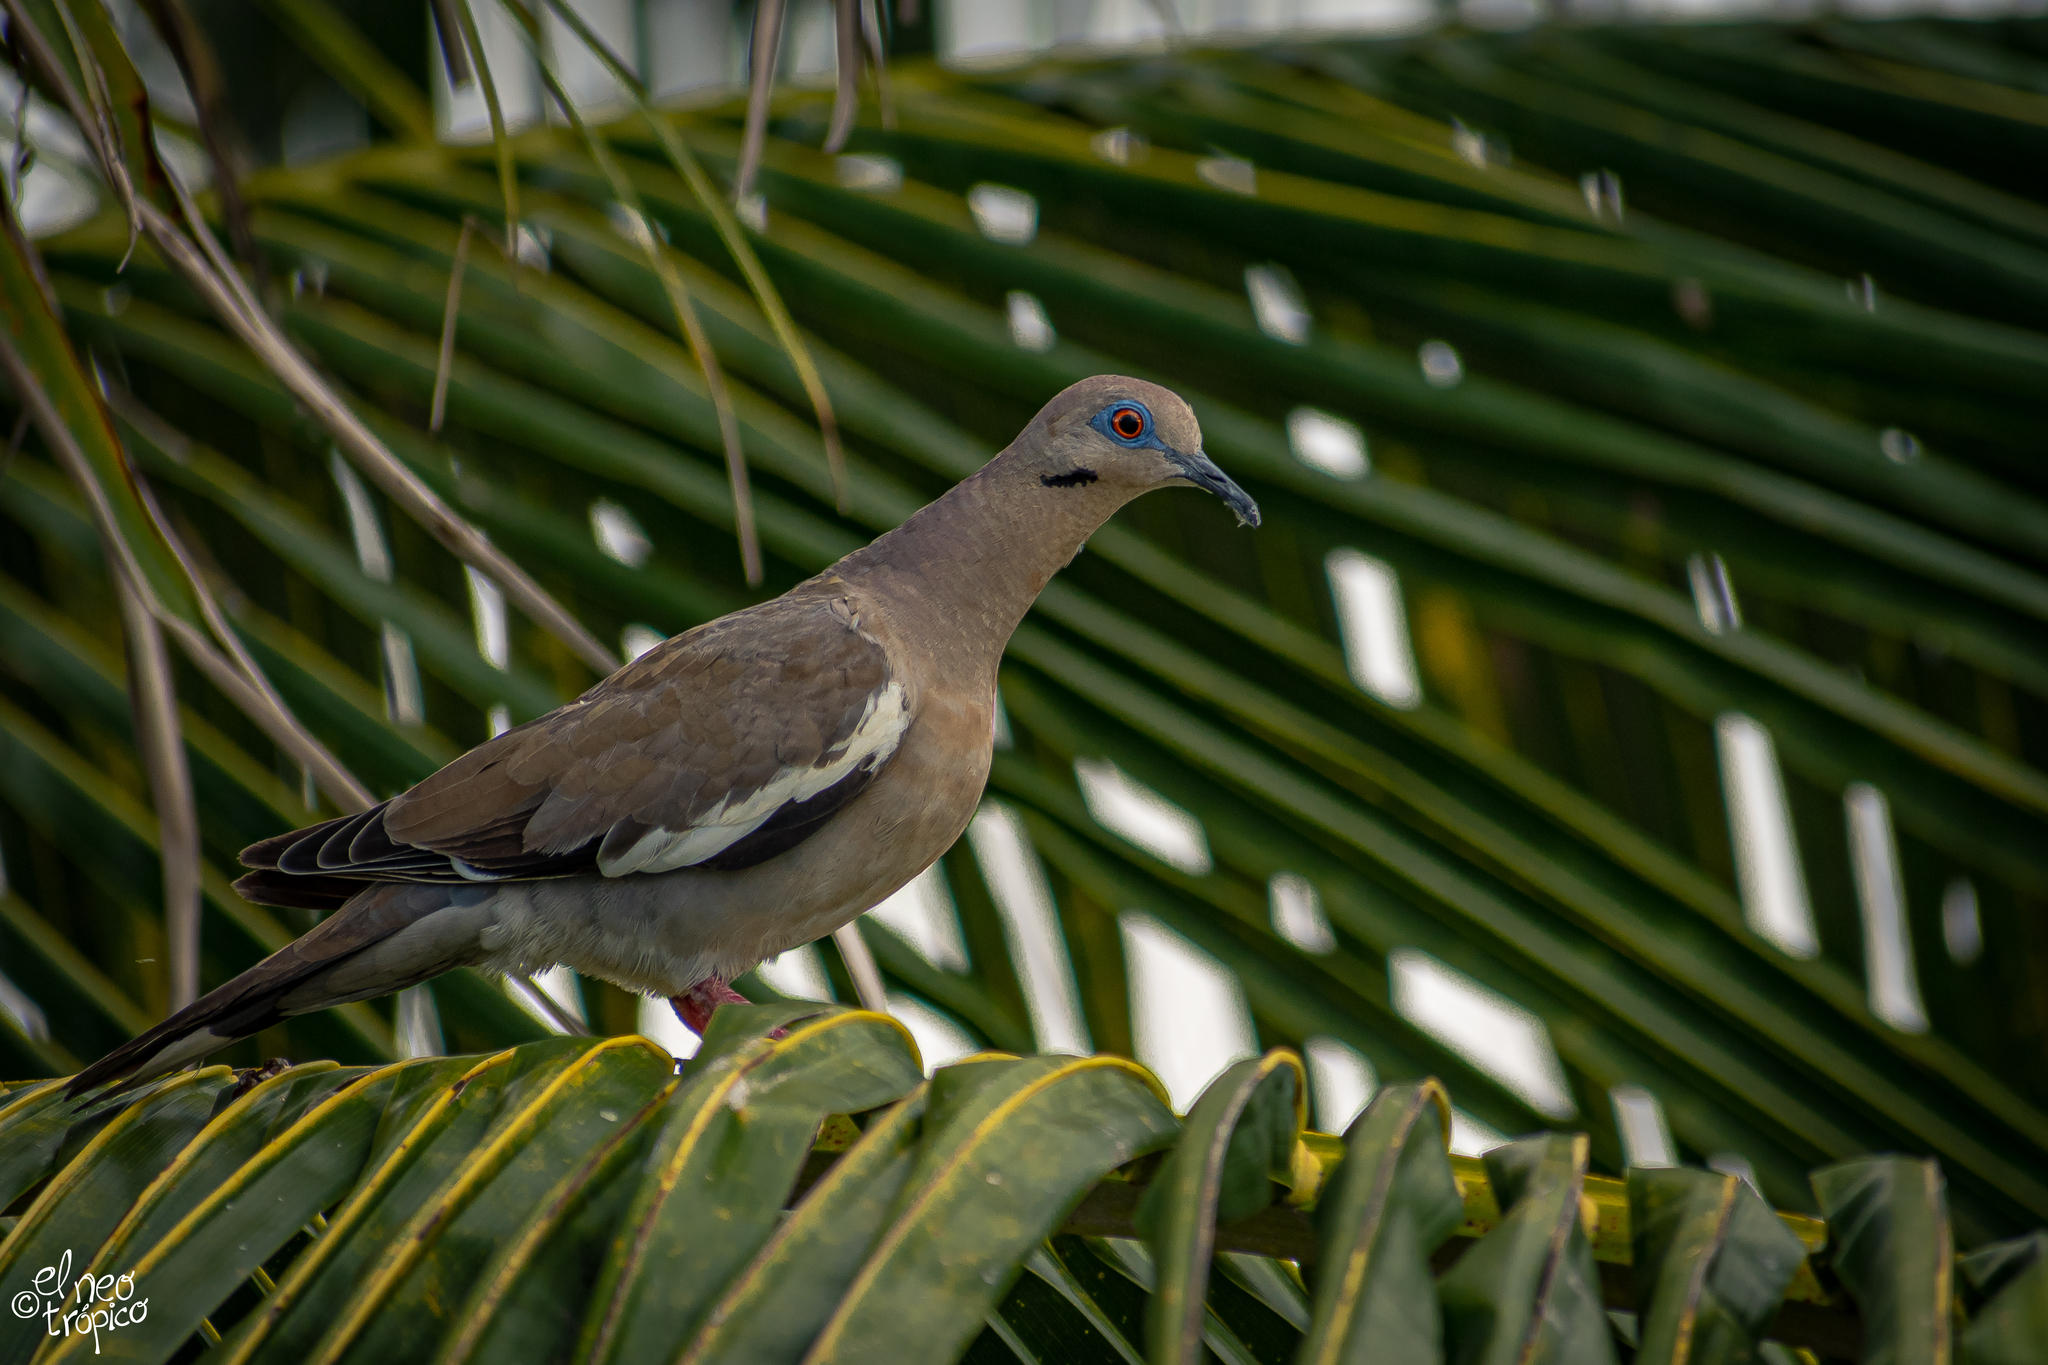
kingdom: Animalia
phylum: Chordata
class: Aves
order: Columbiformes
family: Columbidae
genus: Zenaida
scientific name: Zenaida asiatica
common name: White-winged dove
